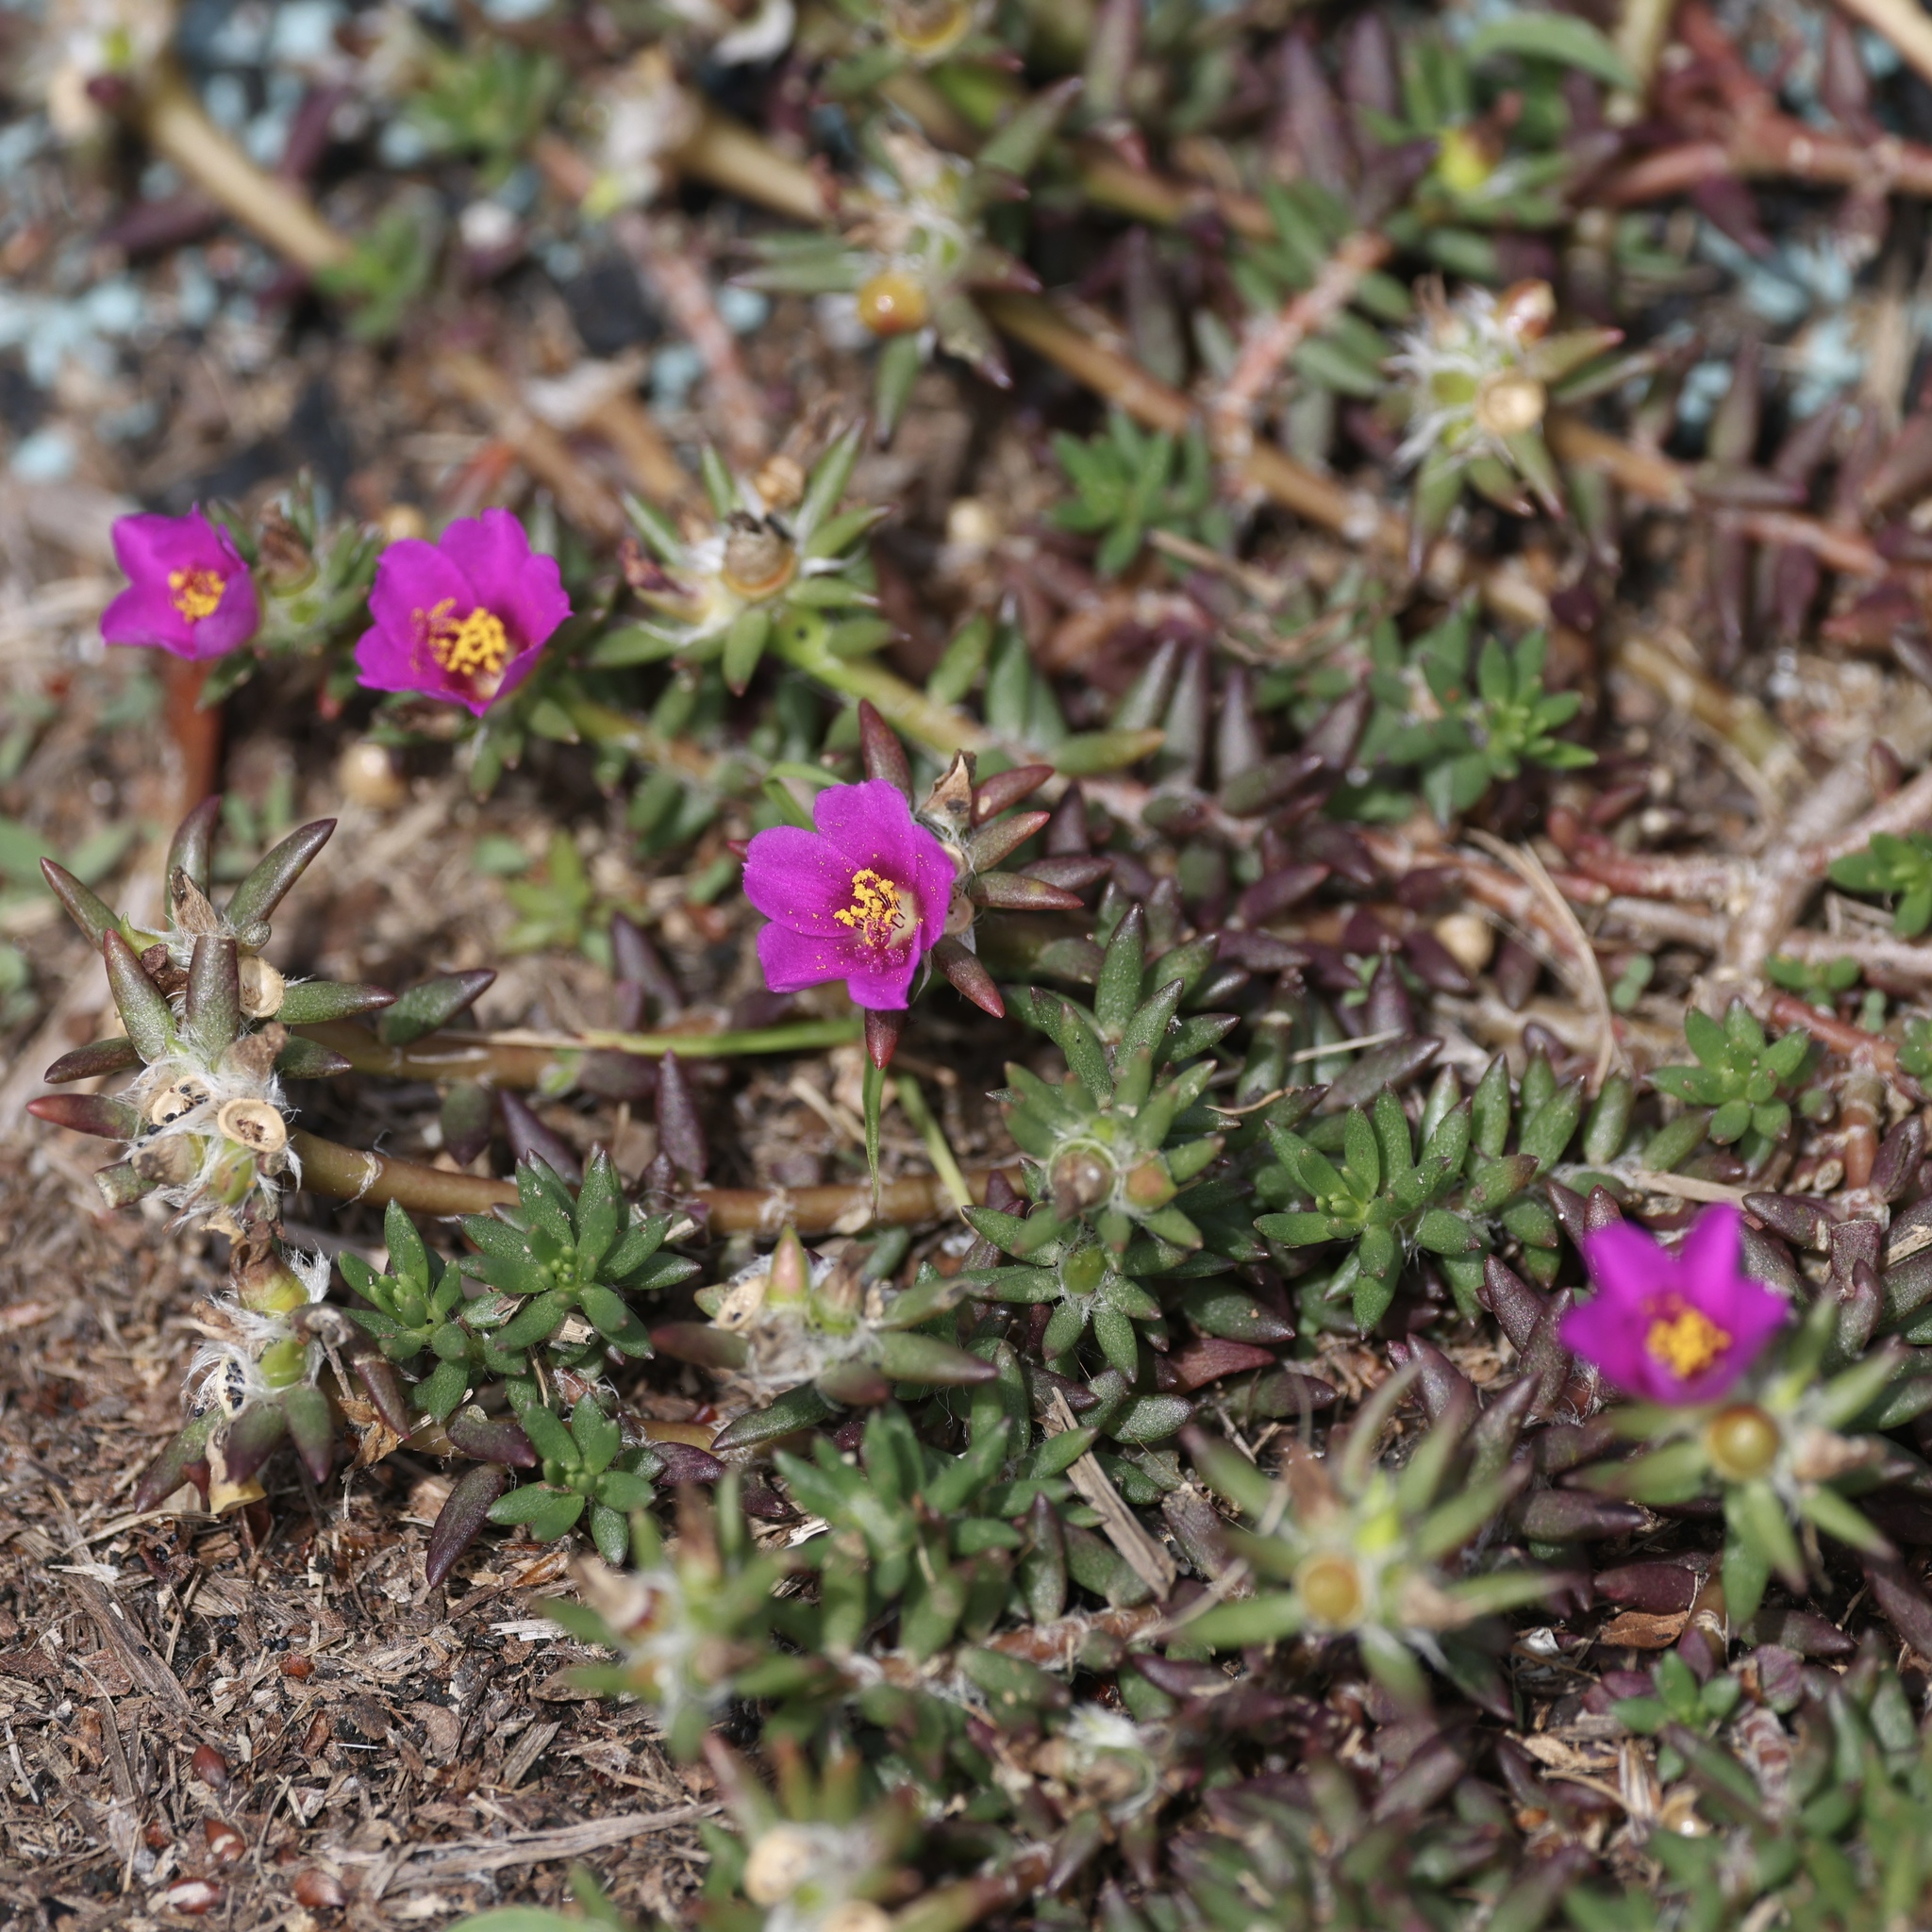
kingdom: Plantae
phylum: Tracheophyta
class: Magnoliopsida
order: Caryophyllales
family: Portulacaceae
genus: Portulaca
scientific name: Portulaca pilosa
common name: Kiss me quick
